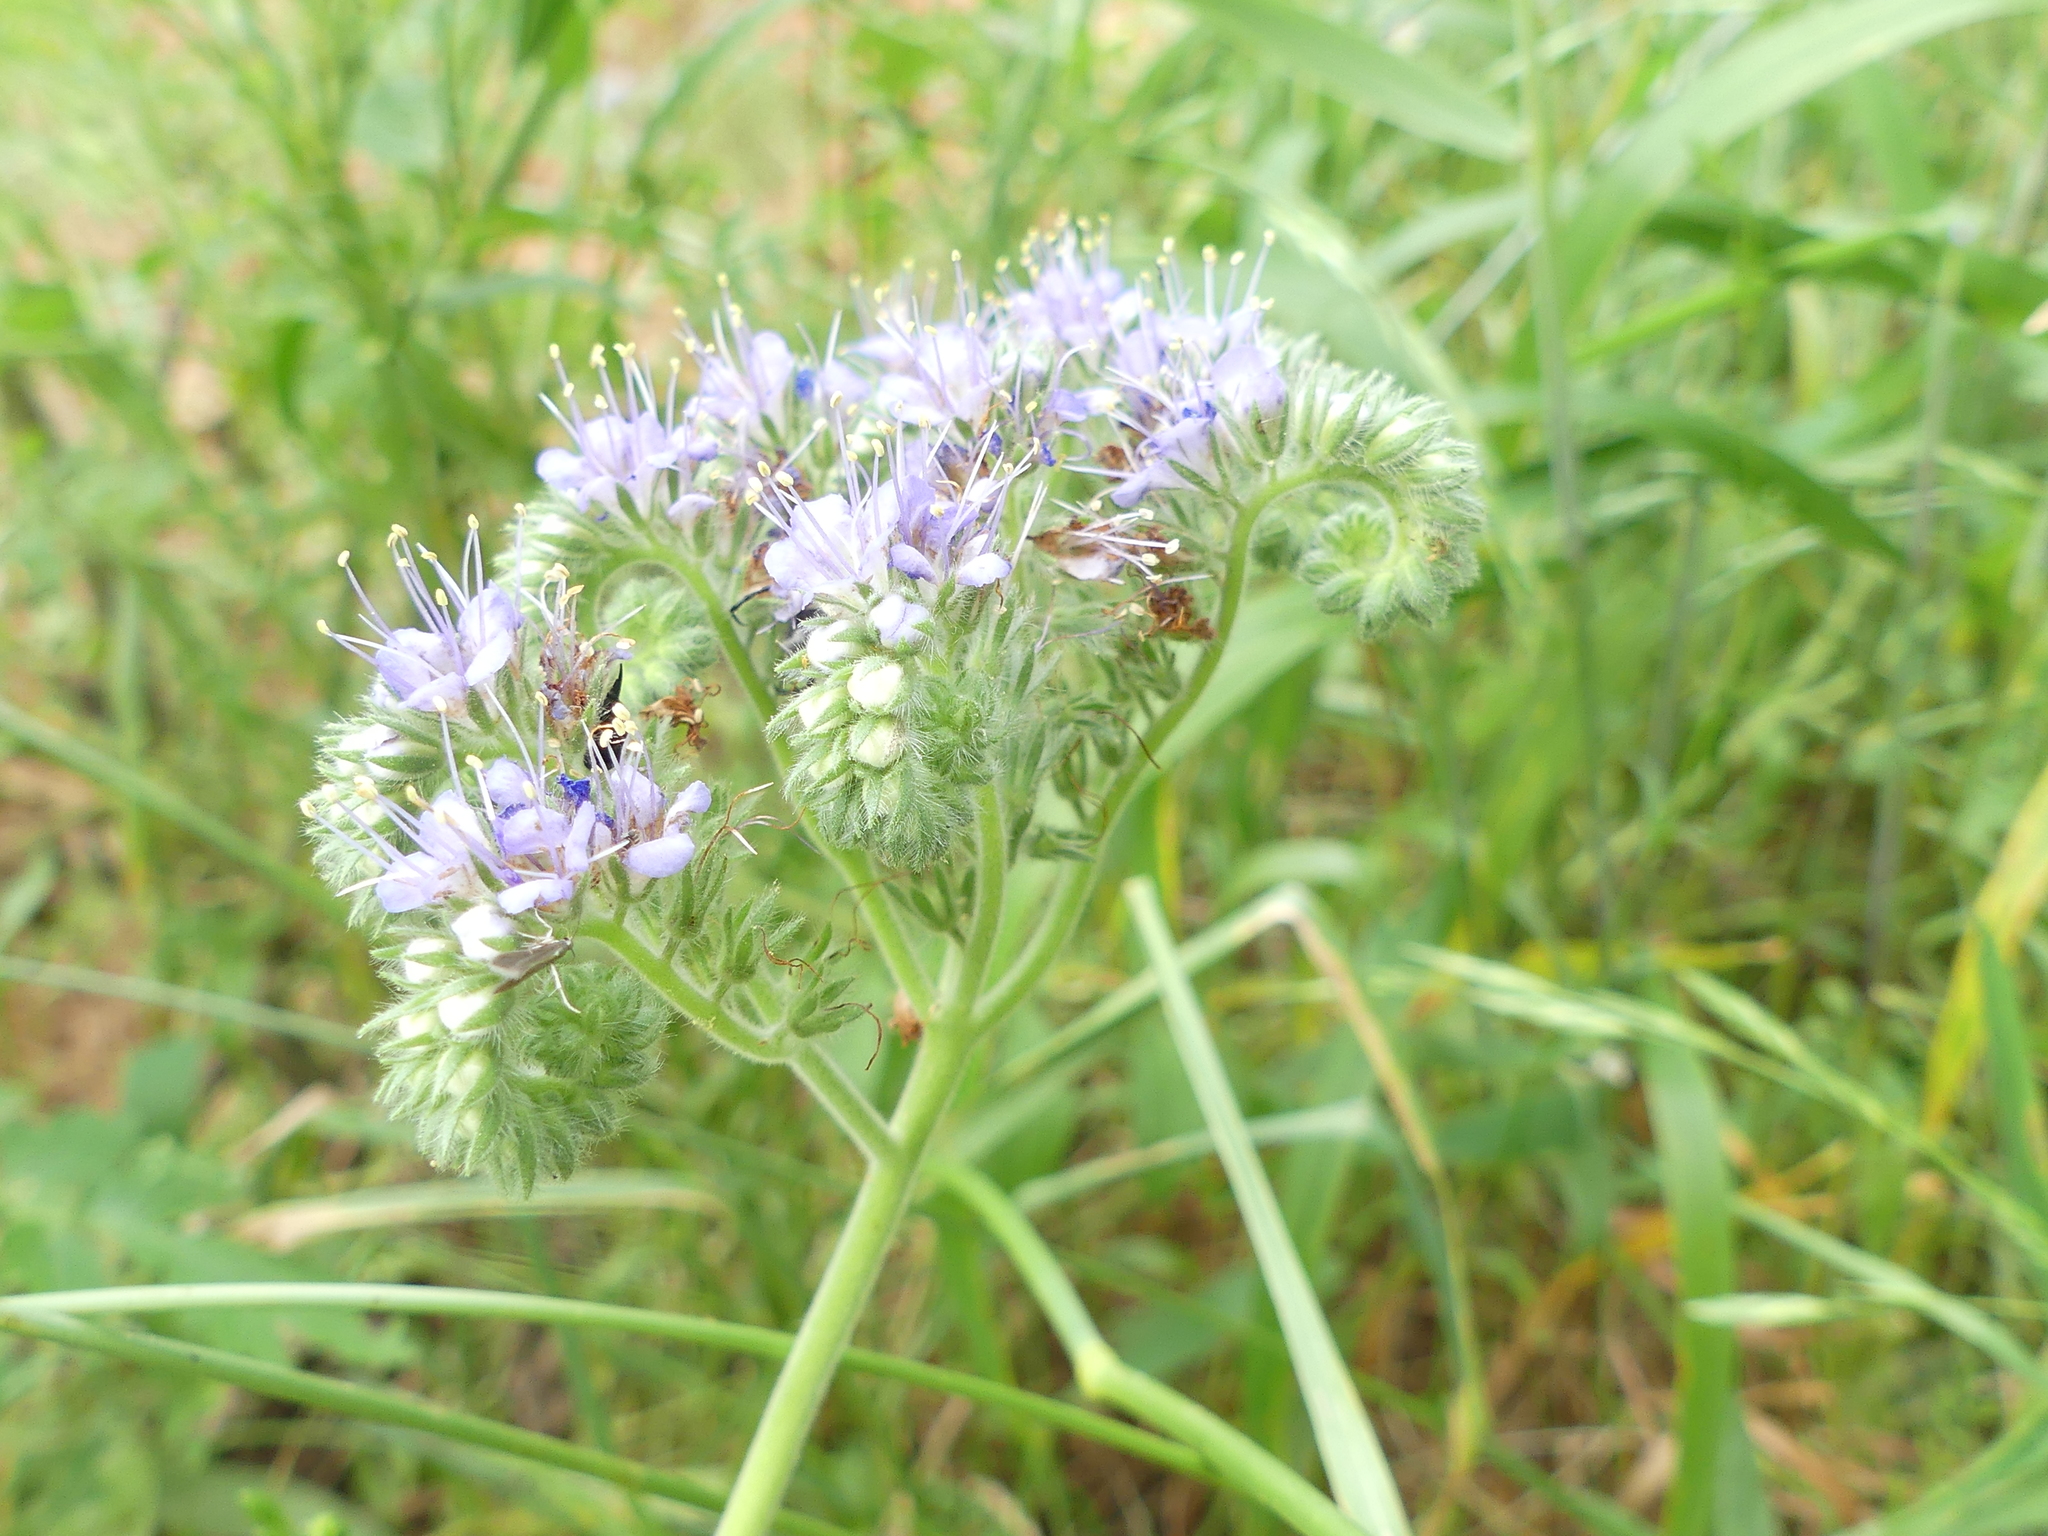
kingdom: Plantae
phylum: Tracheophyta
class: Magnoliopsida
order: Boraginales
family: Hydrophyllaceae
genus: Phacelia
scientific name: Phacelia congesta
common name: Blue curls
